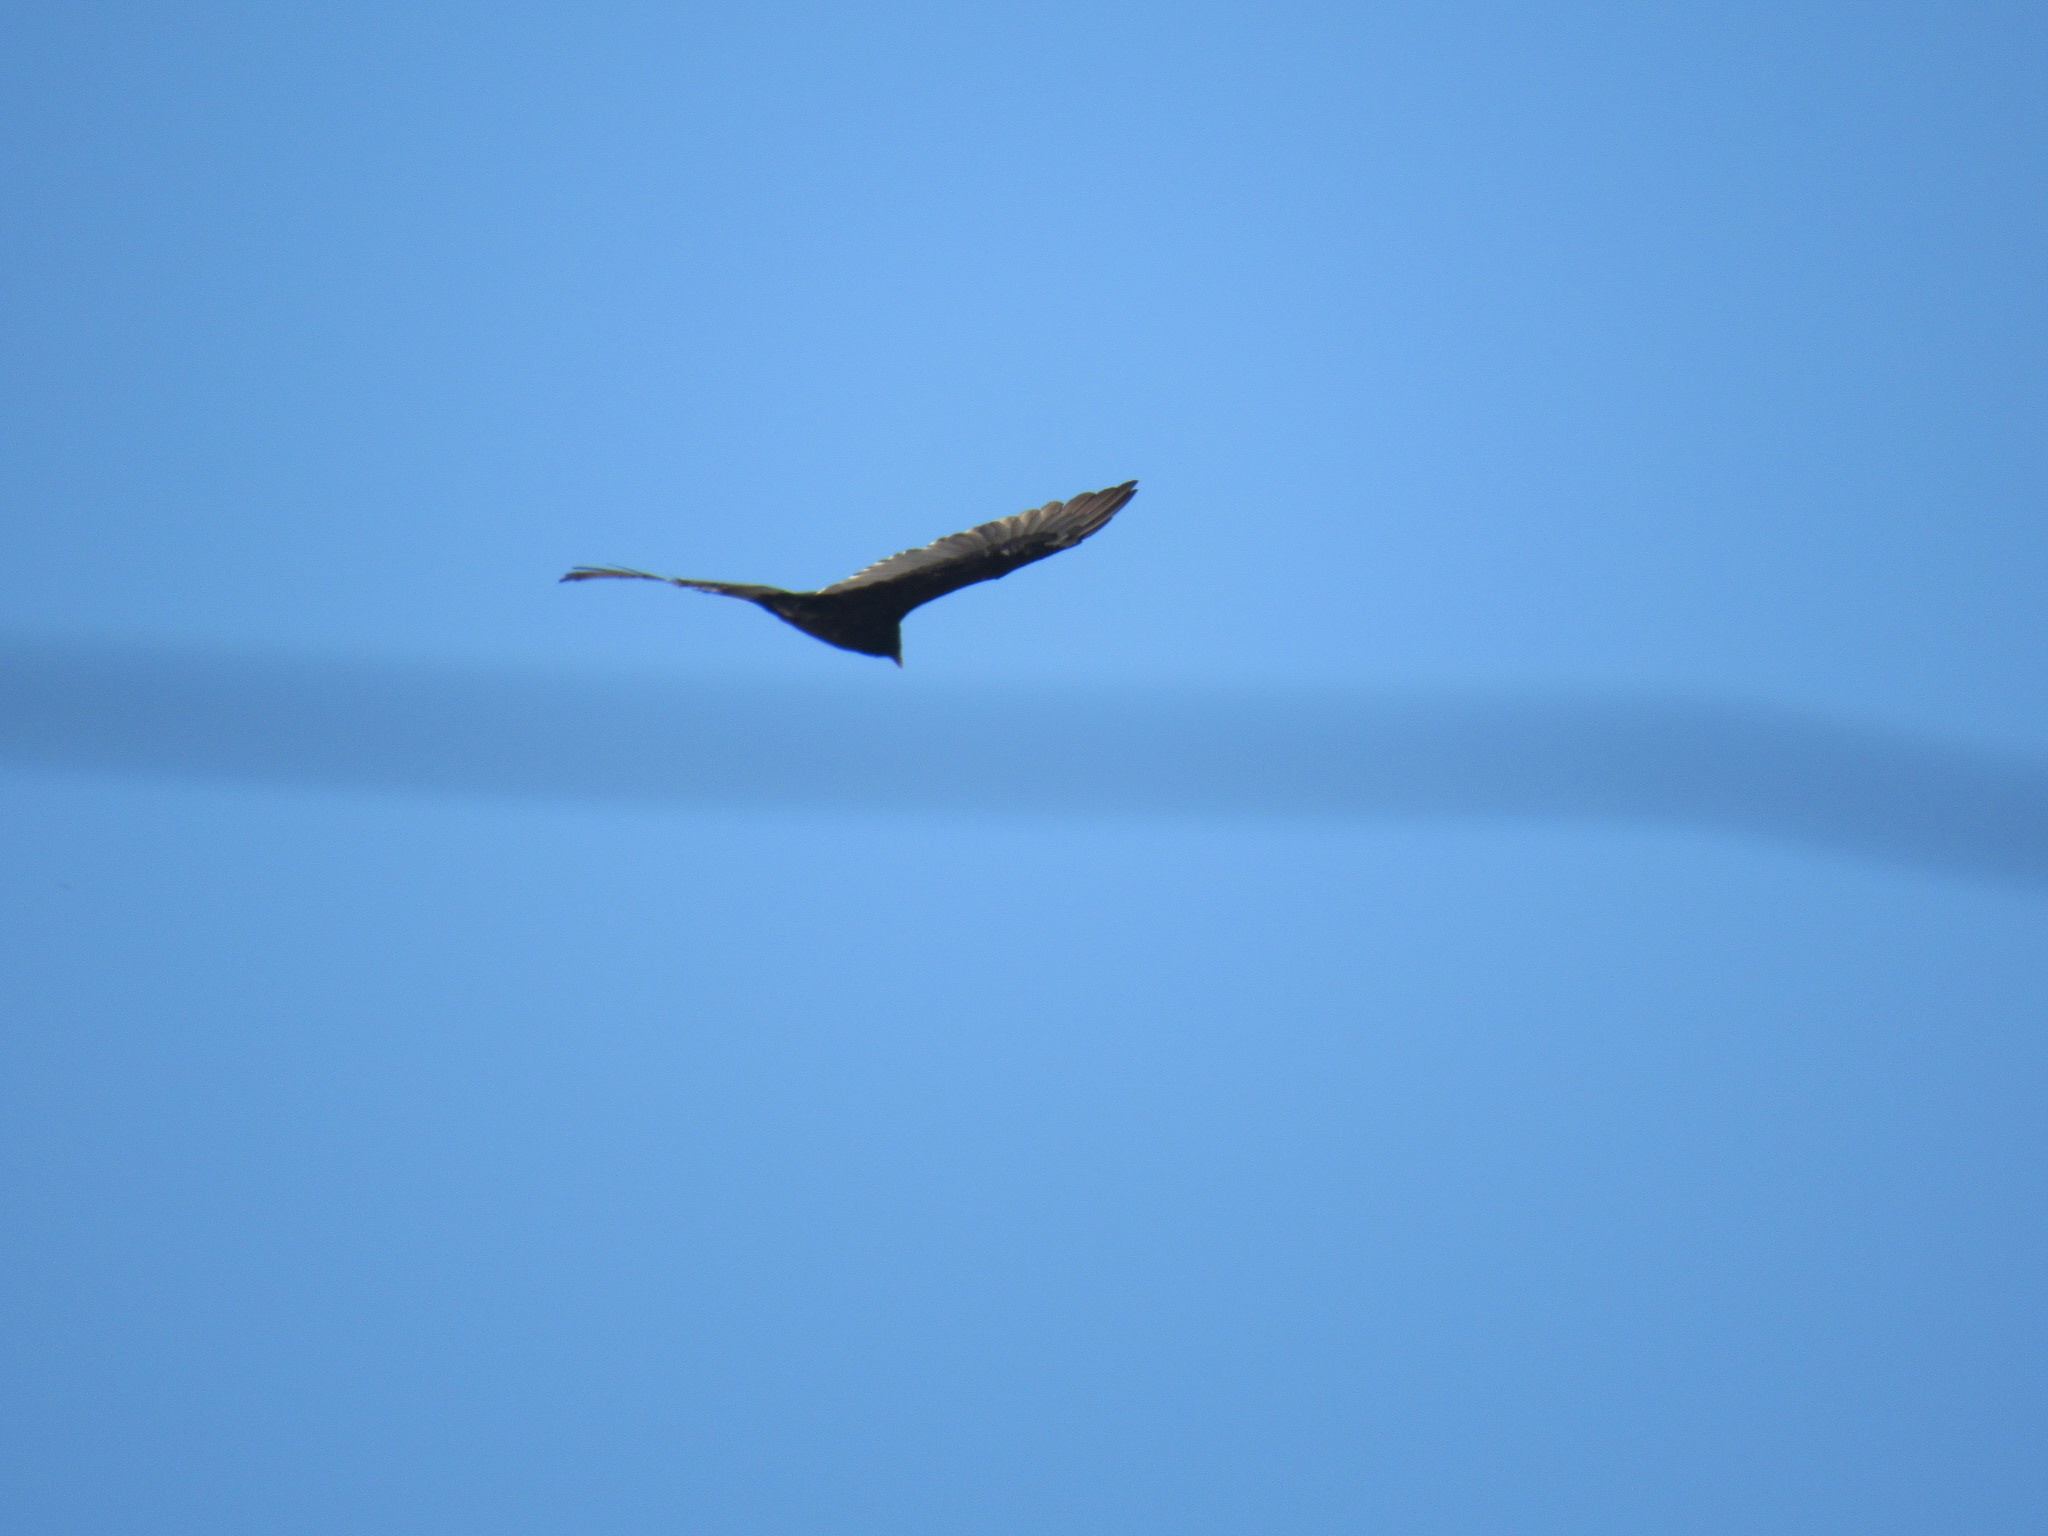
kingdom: Animalia
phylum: Chordata
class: Aves
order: Accipitriformes
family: Cathartidae
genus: Cathartes
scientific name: Cathartes aura
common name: Turkey vulture
